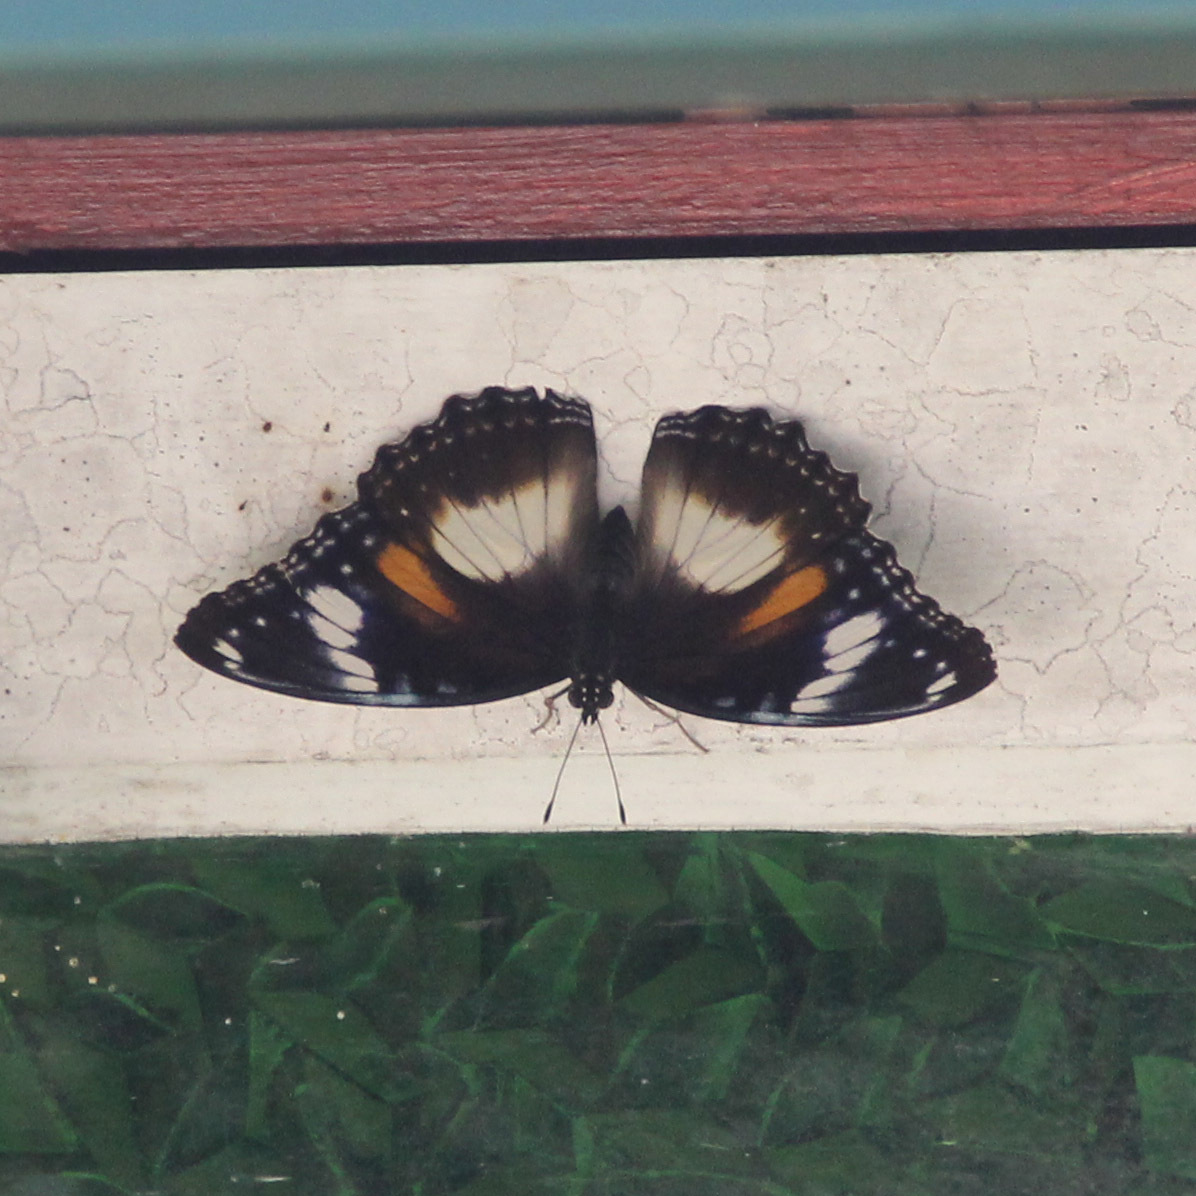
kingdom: Animalia
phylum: Arthropoda
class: Insecta
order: Lepidoptera
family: Nymphalidae
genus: Hypolimnas
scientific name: Hypolimnas bolina
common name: Great eggfly
